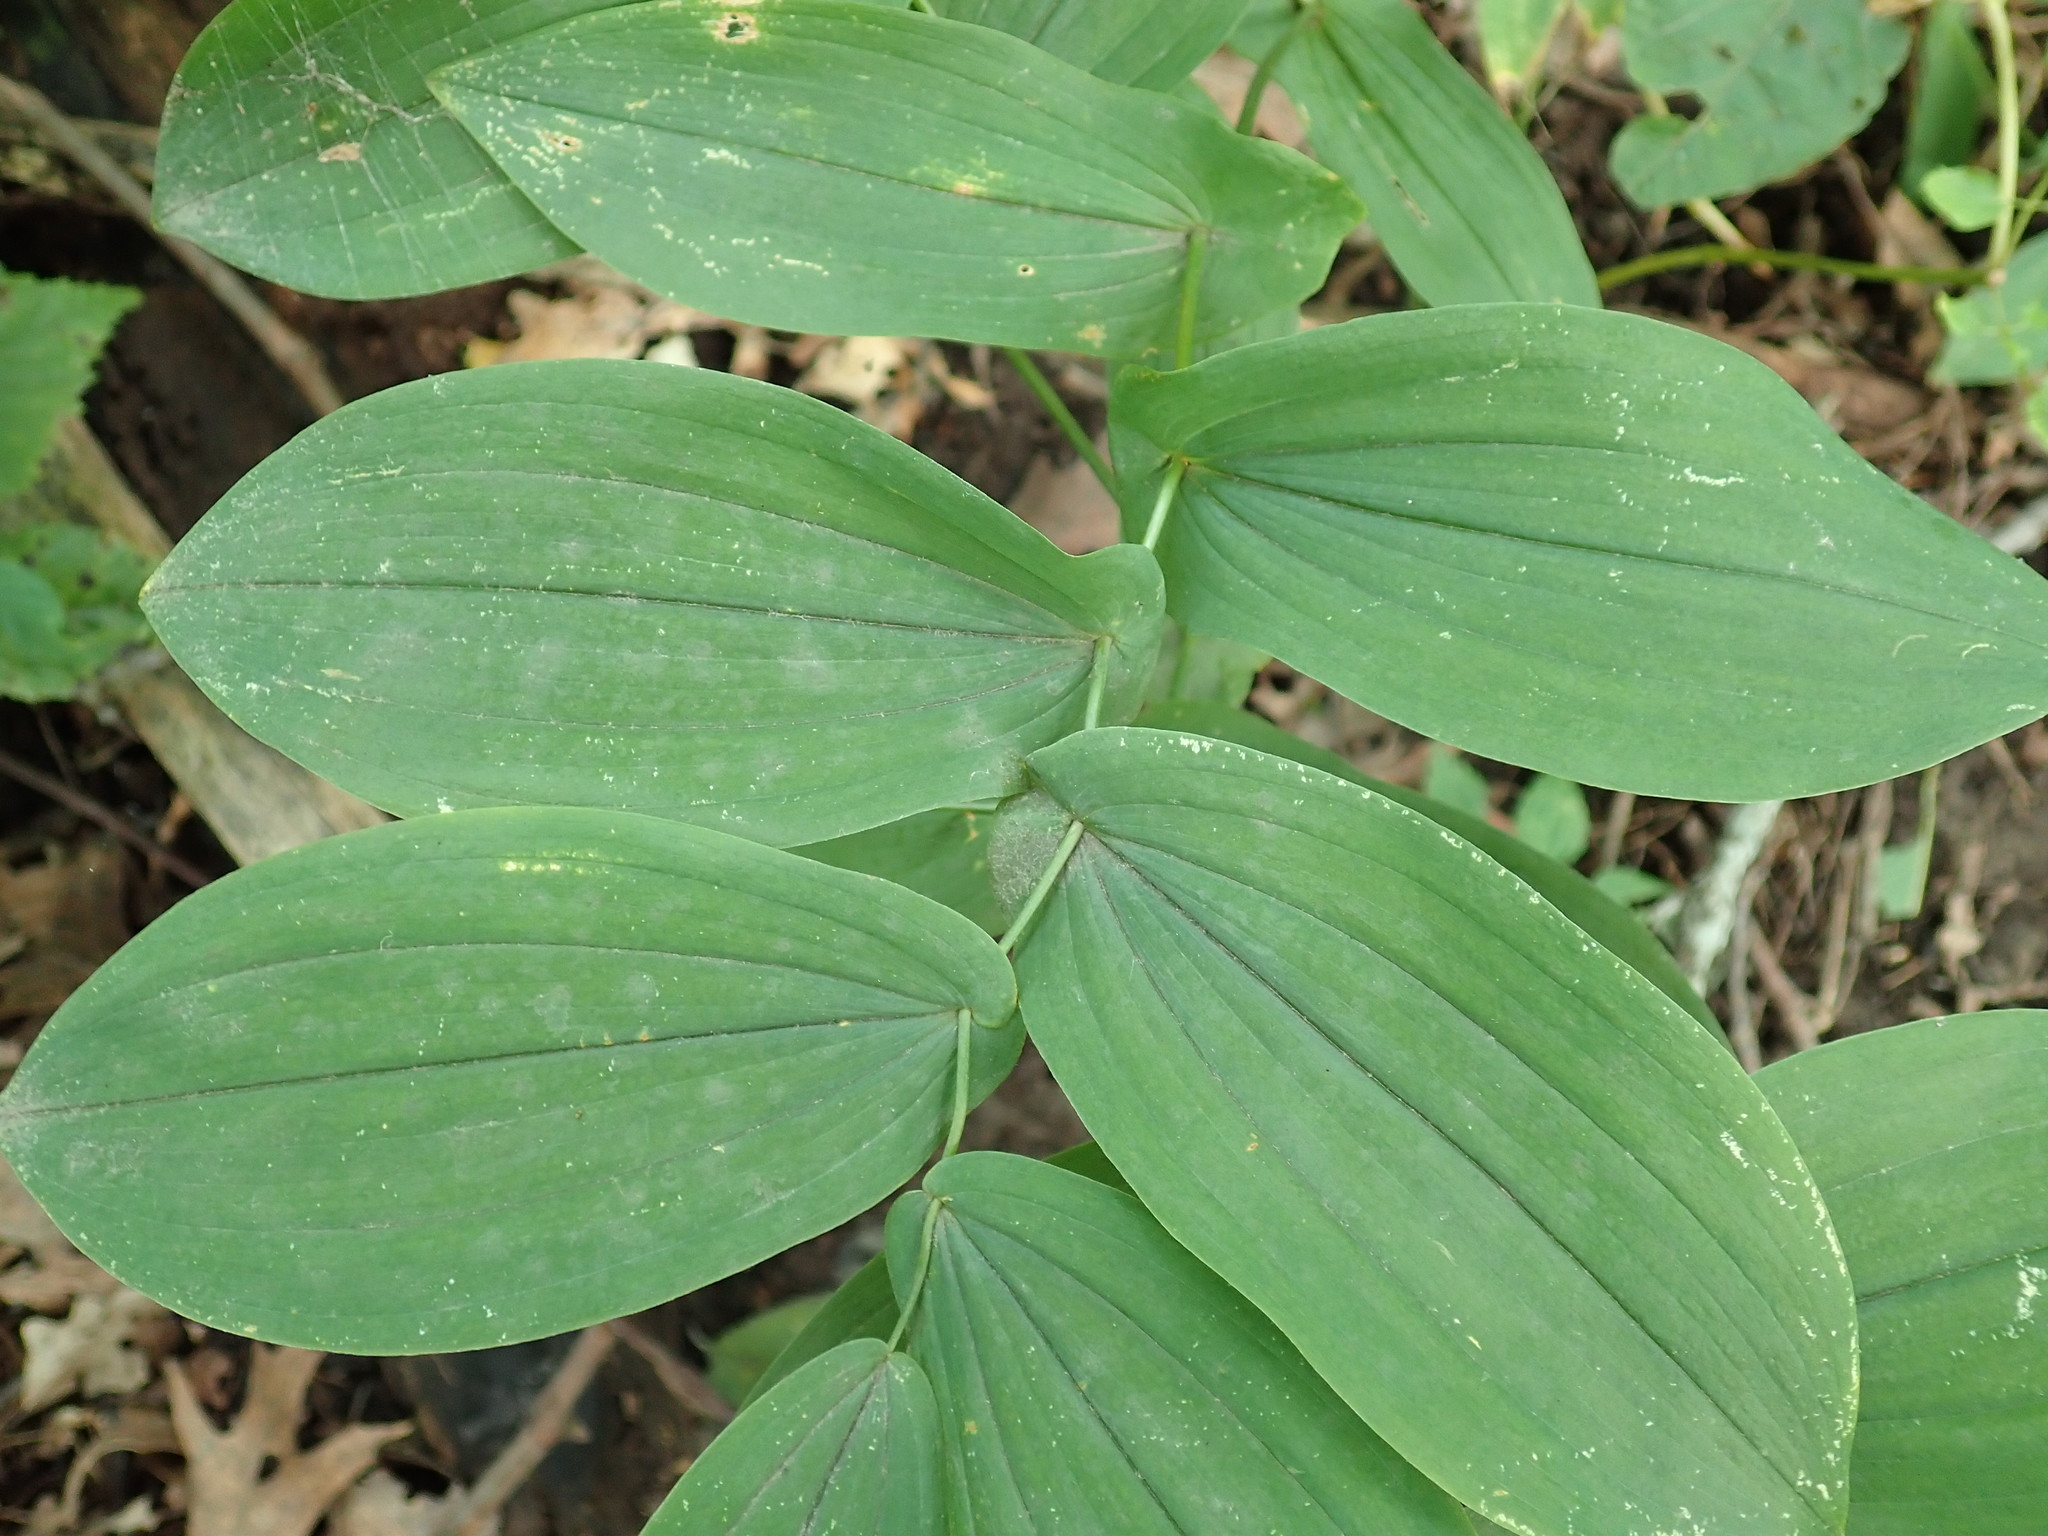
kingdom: Plantae
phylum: Tracheophyta
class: Liliopsida
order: Liliales
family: Colchicaceae
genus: Uvularia
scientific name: Uvularia grandiflora
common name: Bellwort
